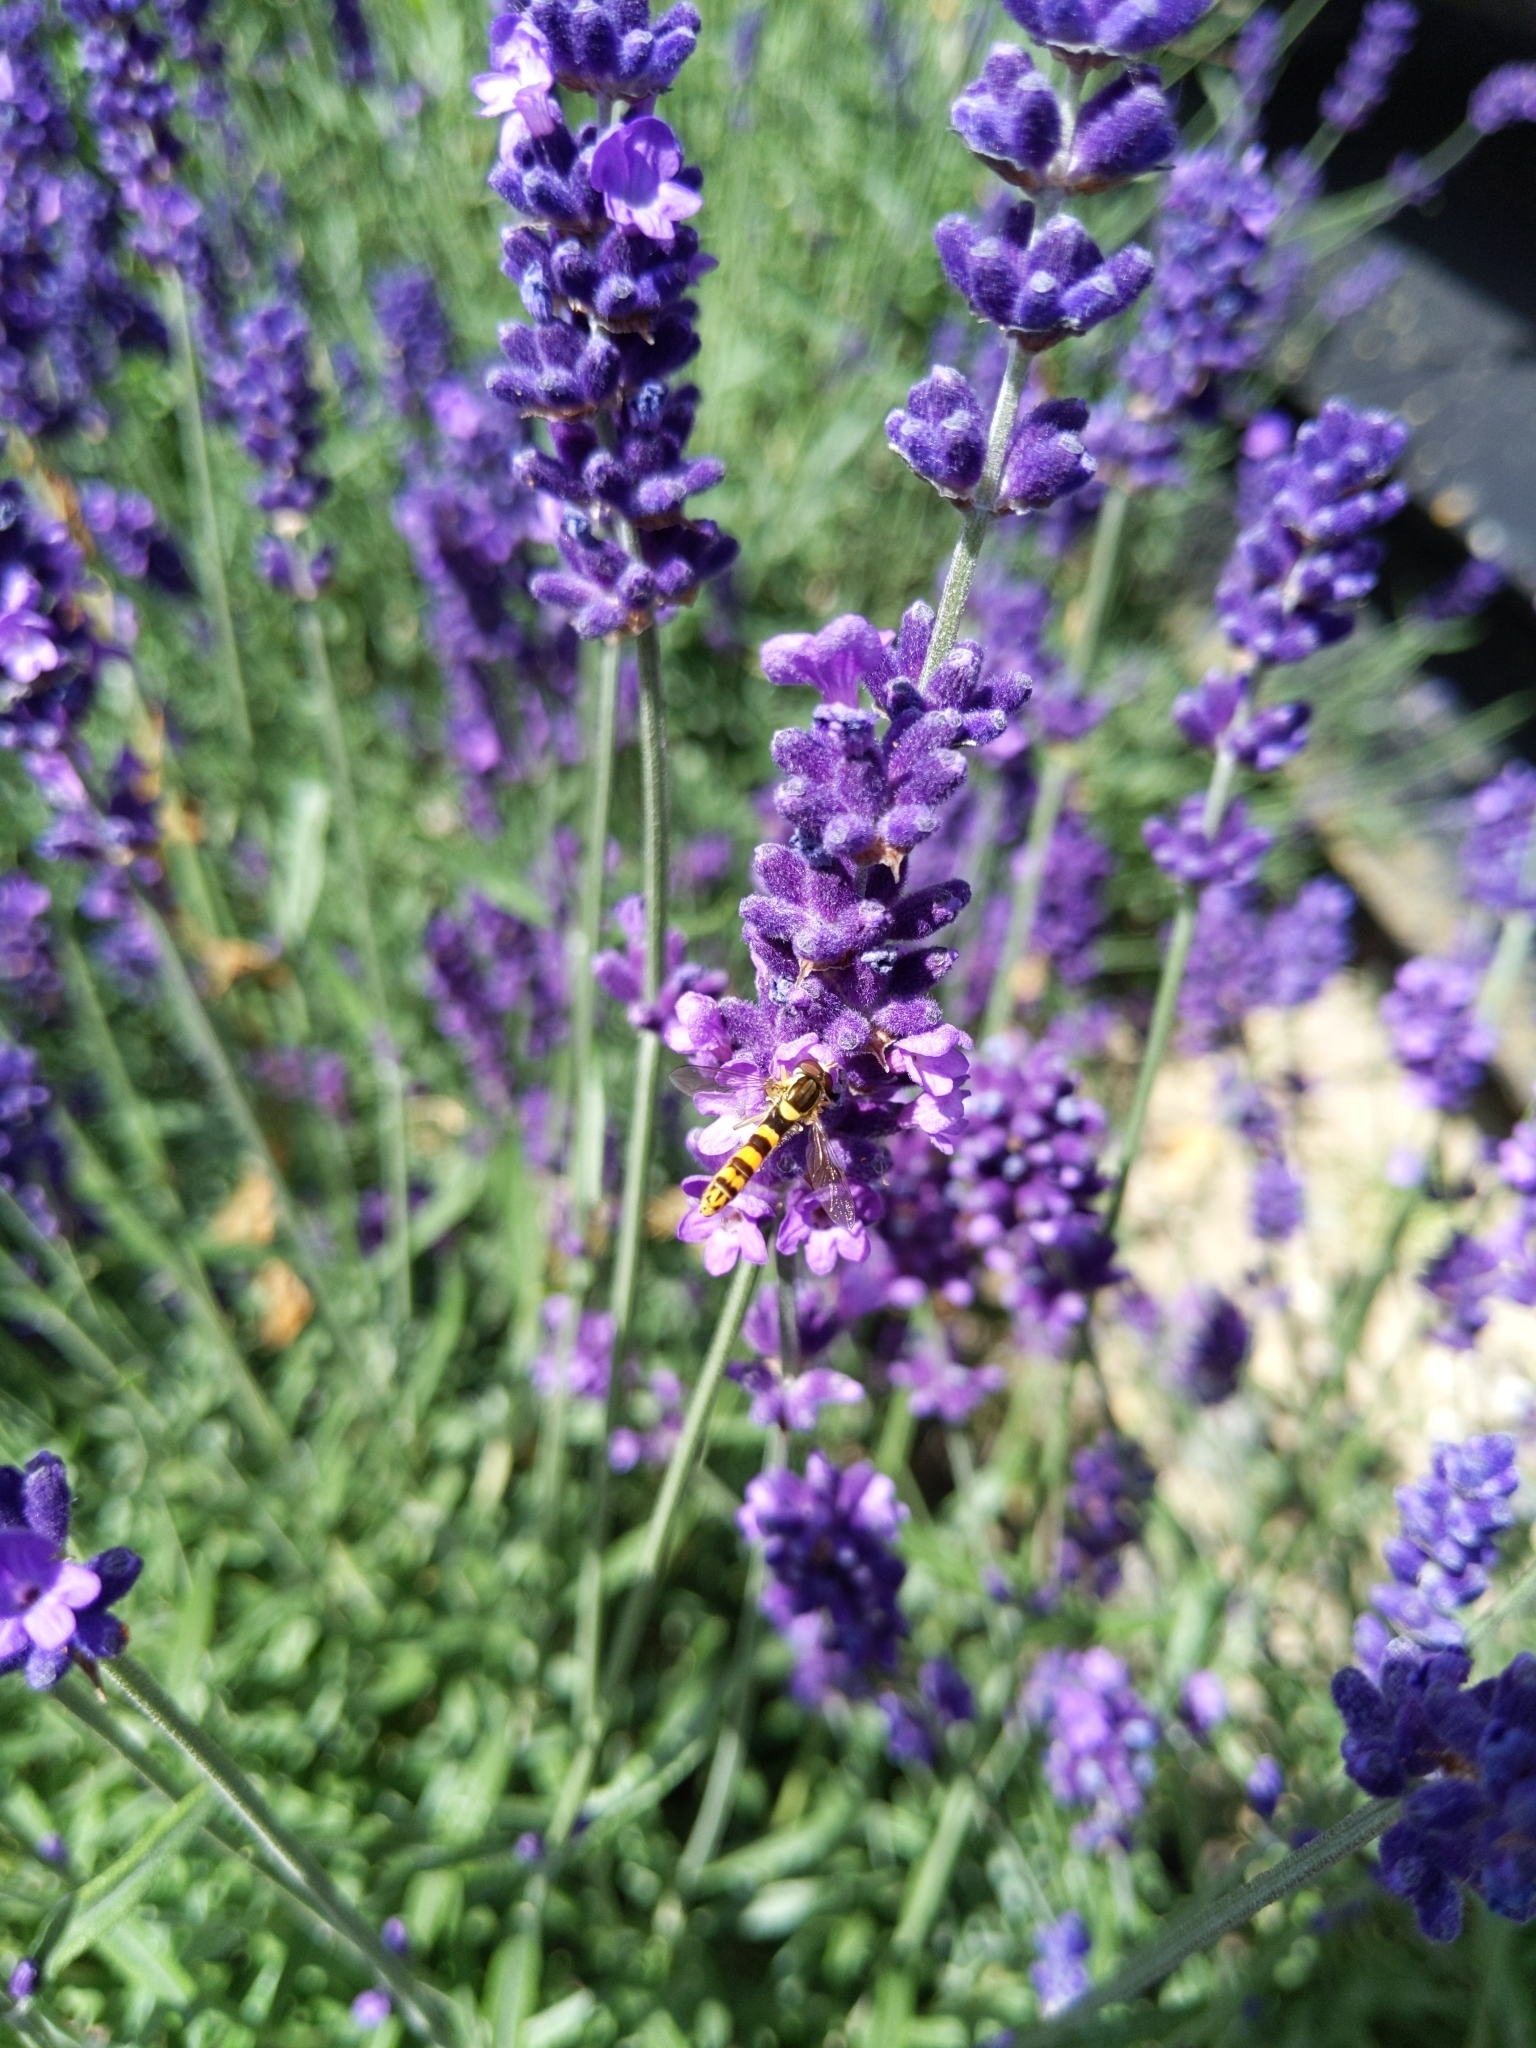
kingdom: Animalia
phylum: Arthropoda
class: Insecta
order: Diptera
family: Syrphidae
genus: Sphaerophoria
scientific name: Sphaerophoria scripta
